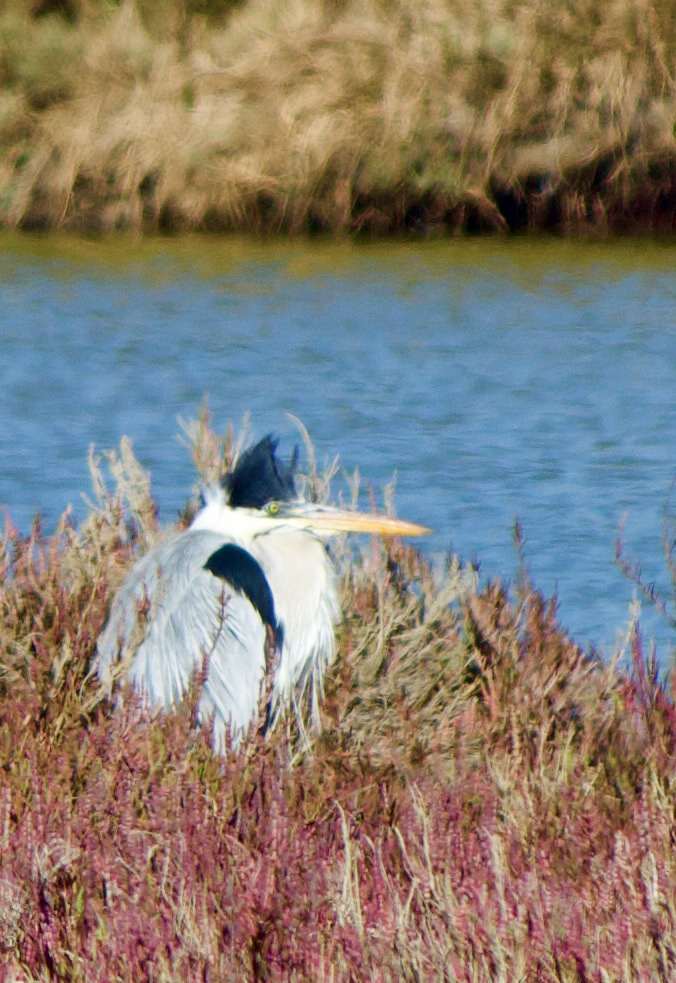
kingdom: Animalia
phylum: Chordata
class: Aves
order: Pelecaniformes
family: Ardeidae
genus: Ardea
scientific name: Ardea cocoi
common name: Cocoi heron
